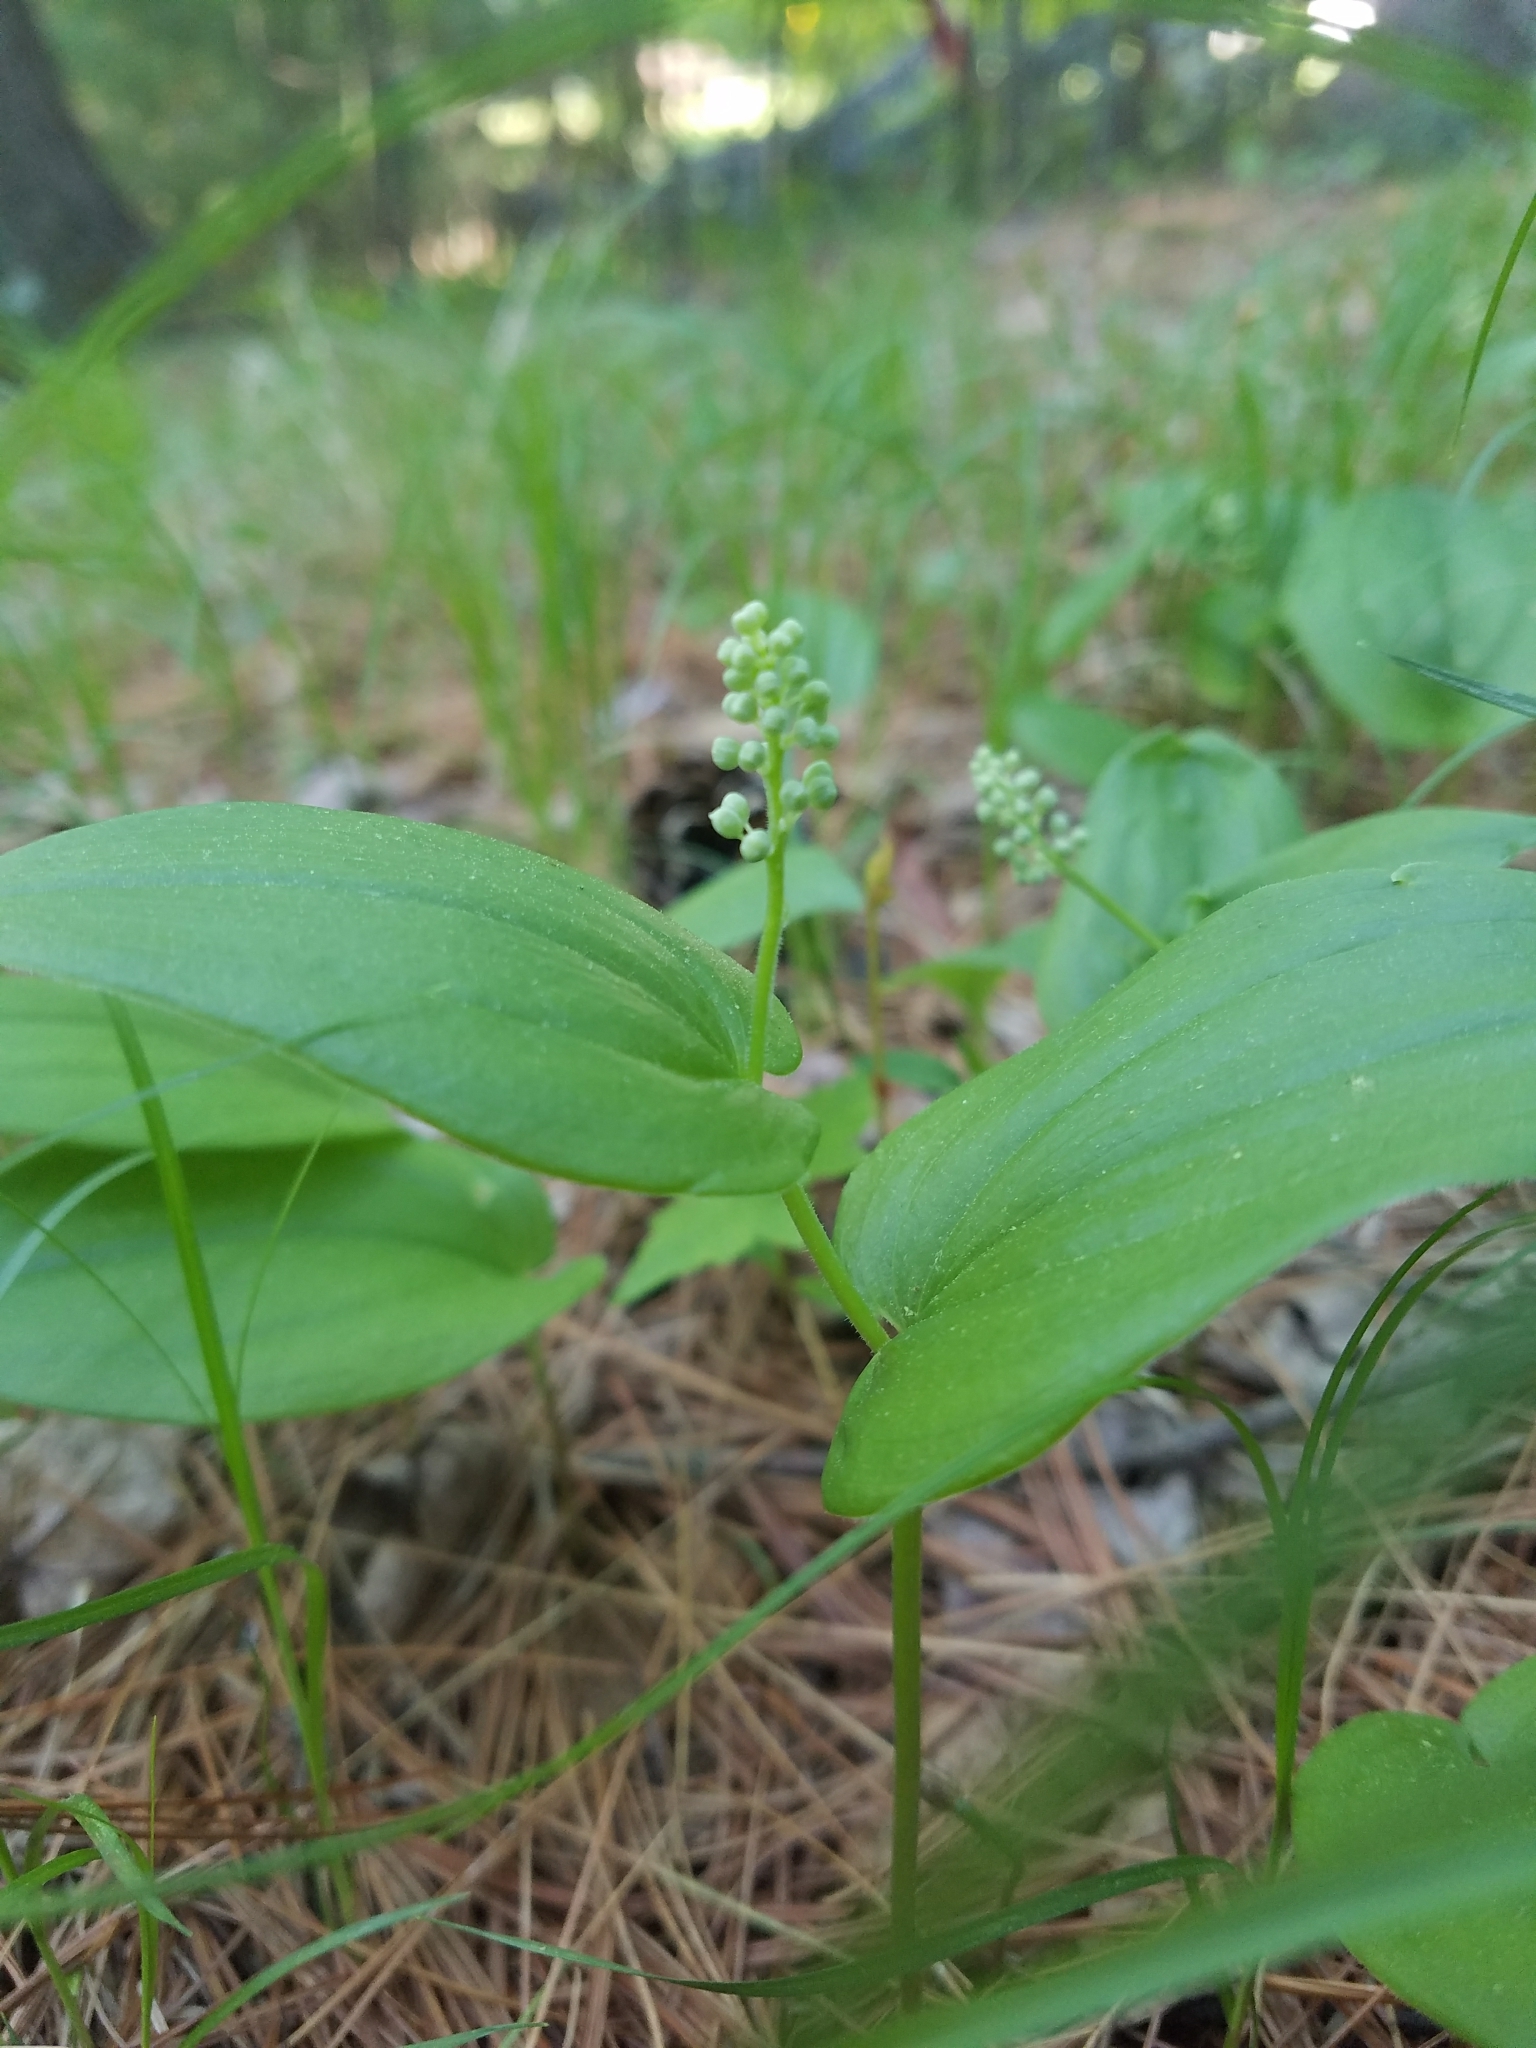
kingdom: Plantae
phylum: Tracheophyta
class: Liliopsida
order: Asparagales
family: Asparagaceae
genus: Maianthemum
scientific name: Maianthemum canadense
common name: False lily-of-the-valley
